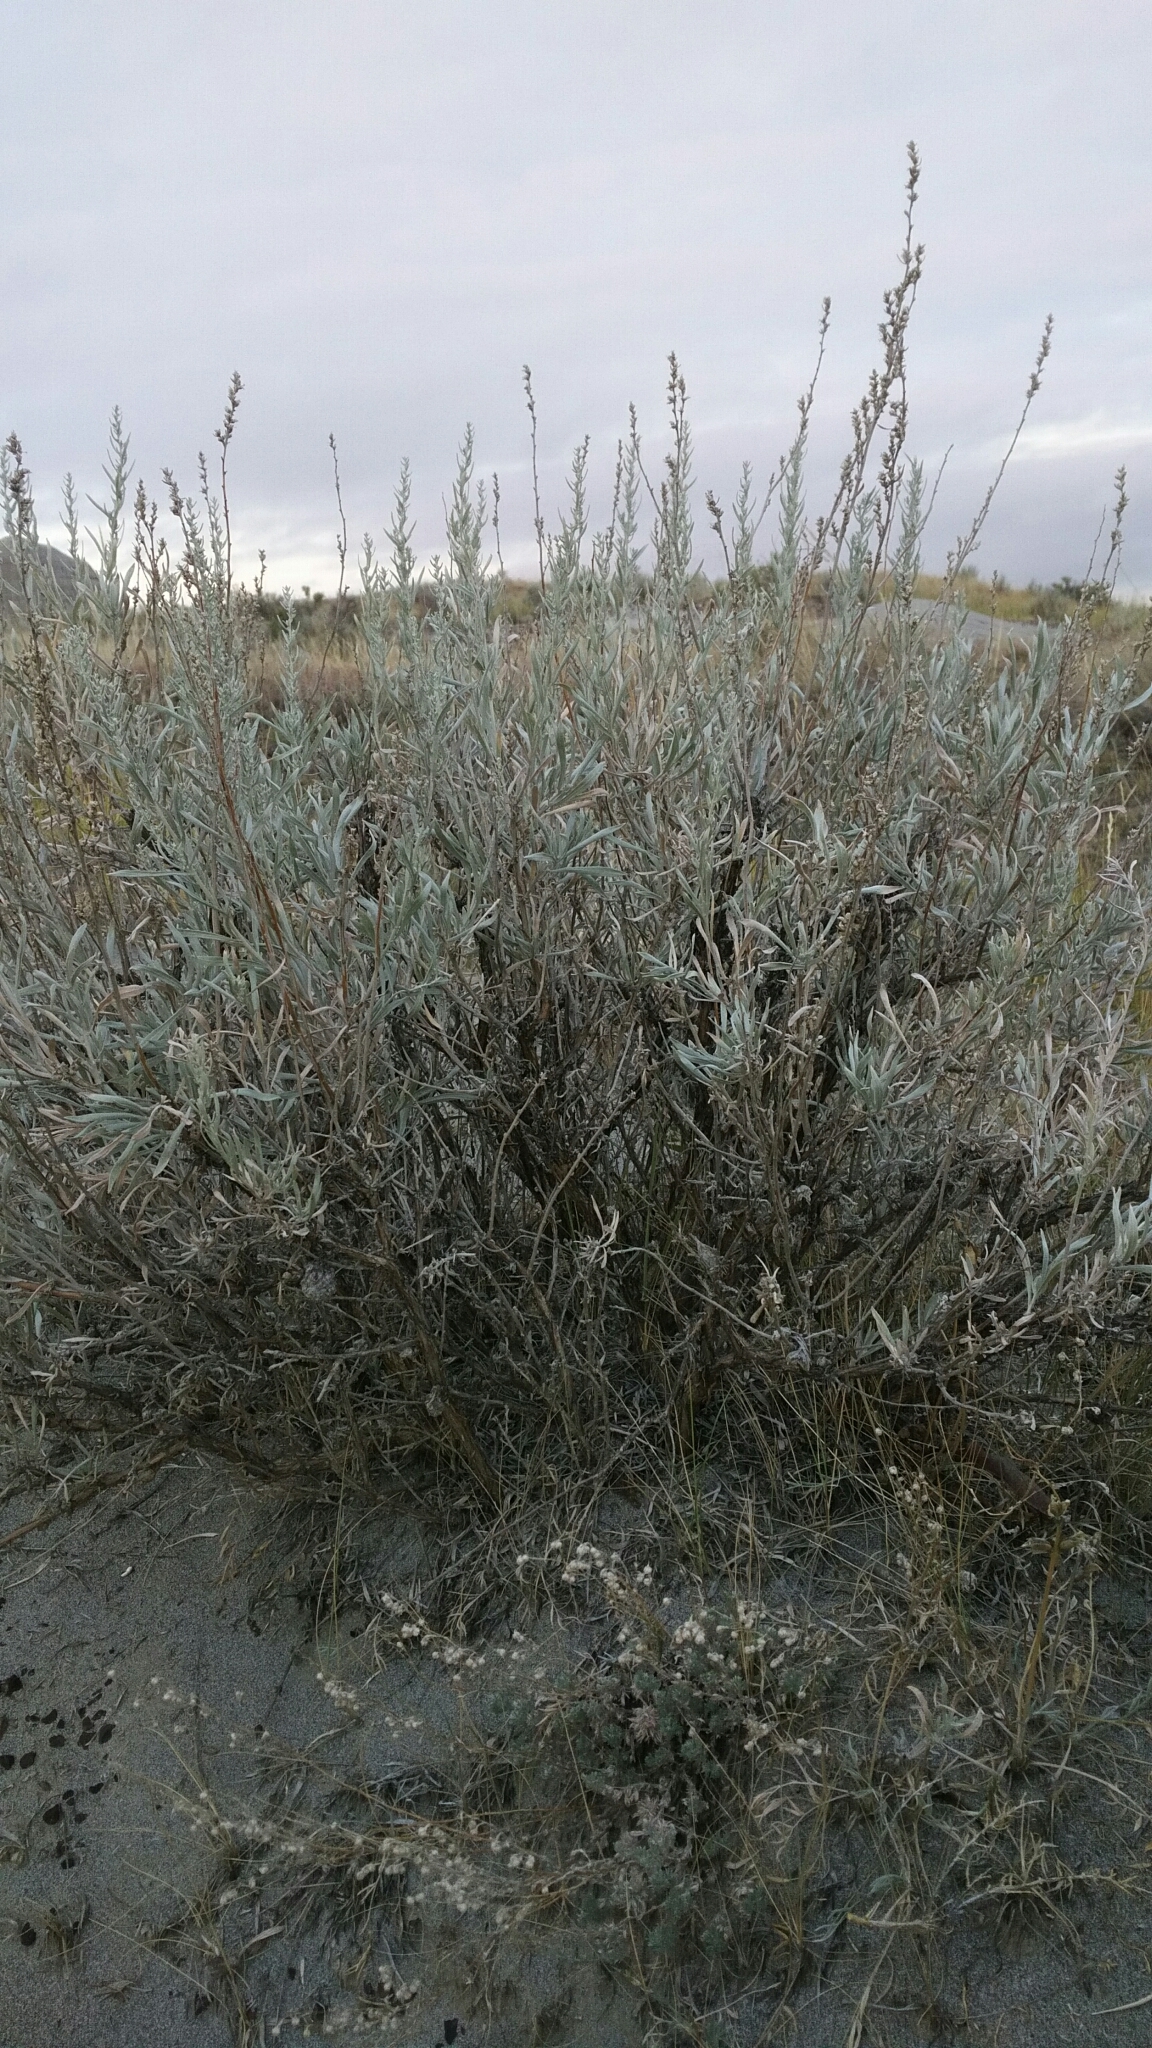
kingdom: Plantae
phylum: Tracheophyta
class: Magnoliopsida
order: Asterales
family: Asteraceae
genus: Artemisia
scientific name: Artemisia cana
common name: Silver sagebrush
